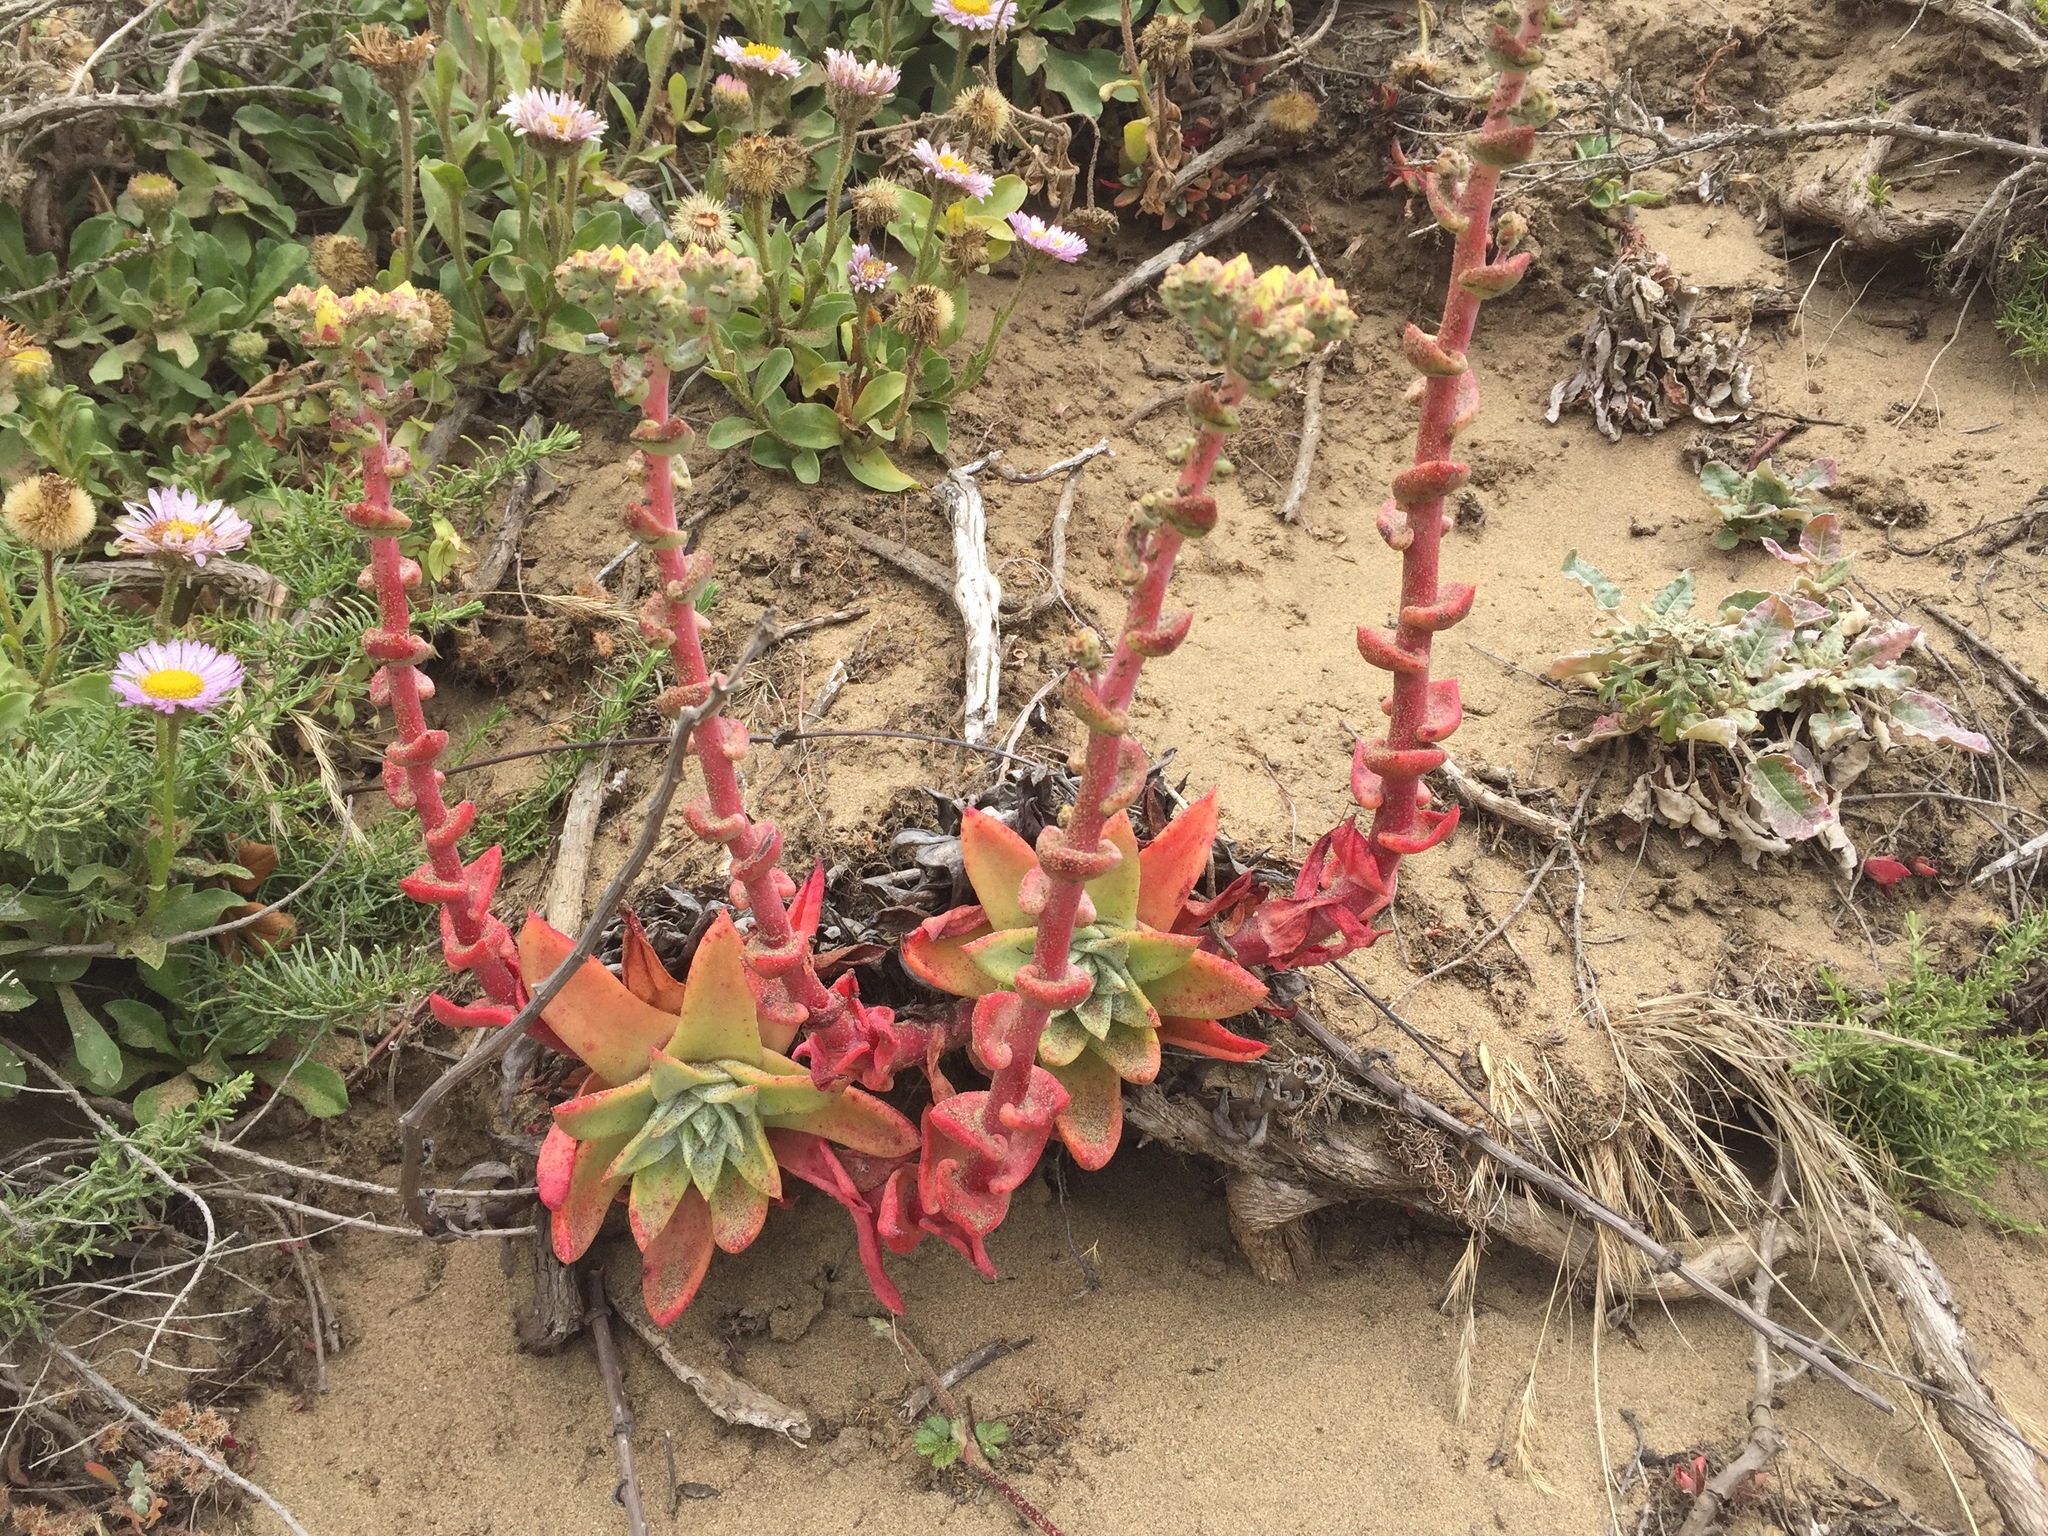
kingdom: Plantae
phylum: Tracheophyta
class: Magnoliopsida
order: Saxifragales
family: Crassulaceae
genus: Dudleya
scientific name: Dudleya farinosa
